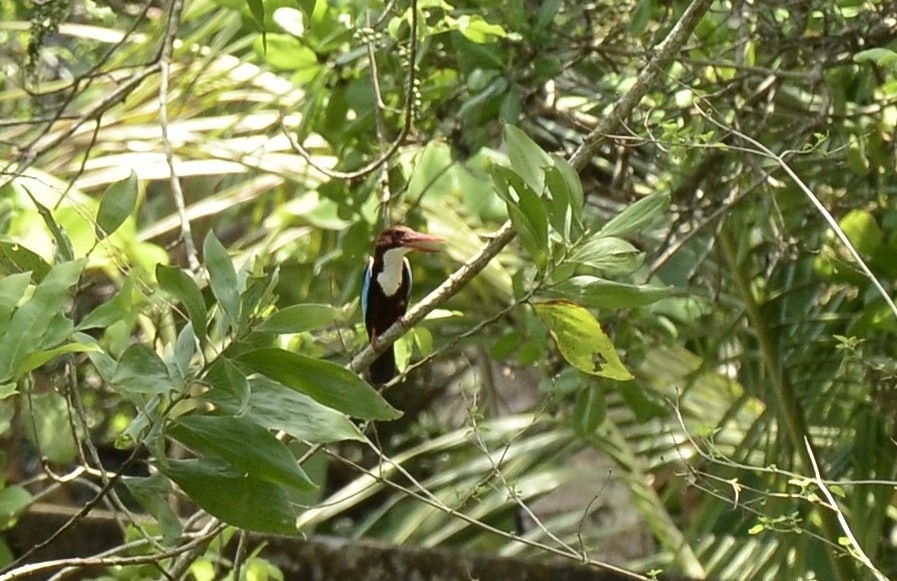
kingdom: Animalia
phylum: Chordata
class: Aves
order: Coraciiformes
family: Alcedinidae
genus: Halcyon
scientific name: Halcyon smyrnensis
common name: White-throated kingfisher
